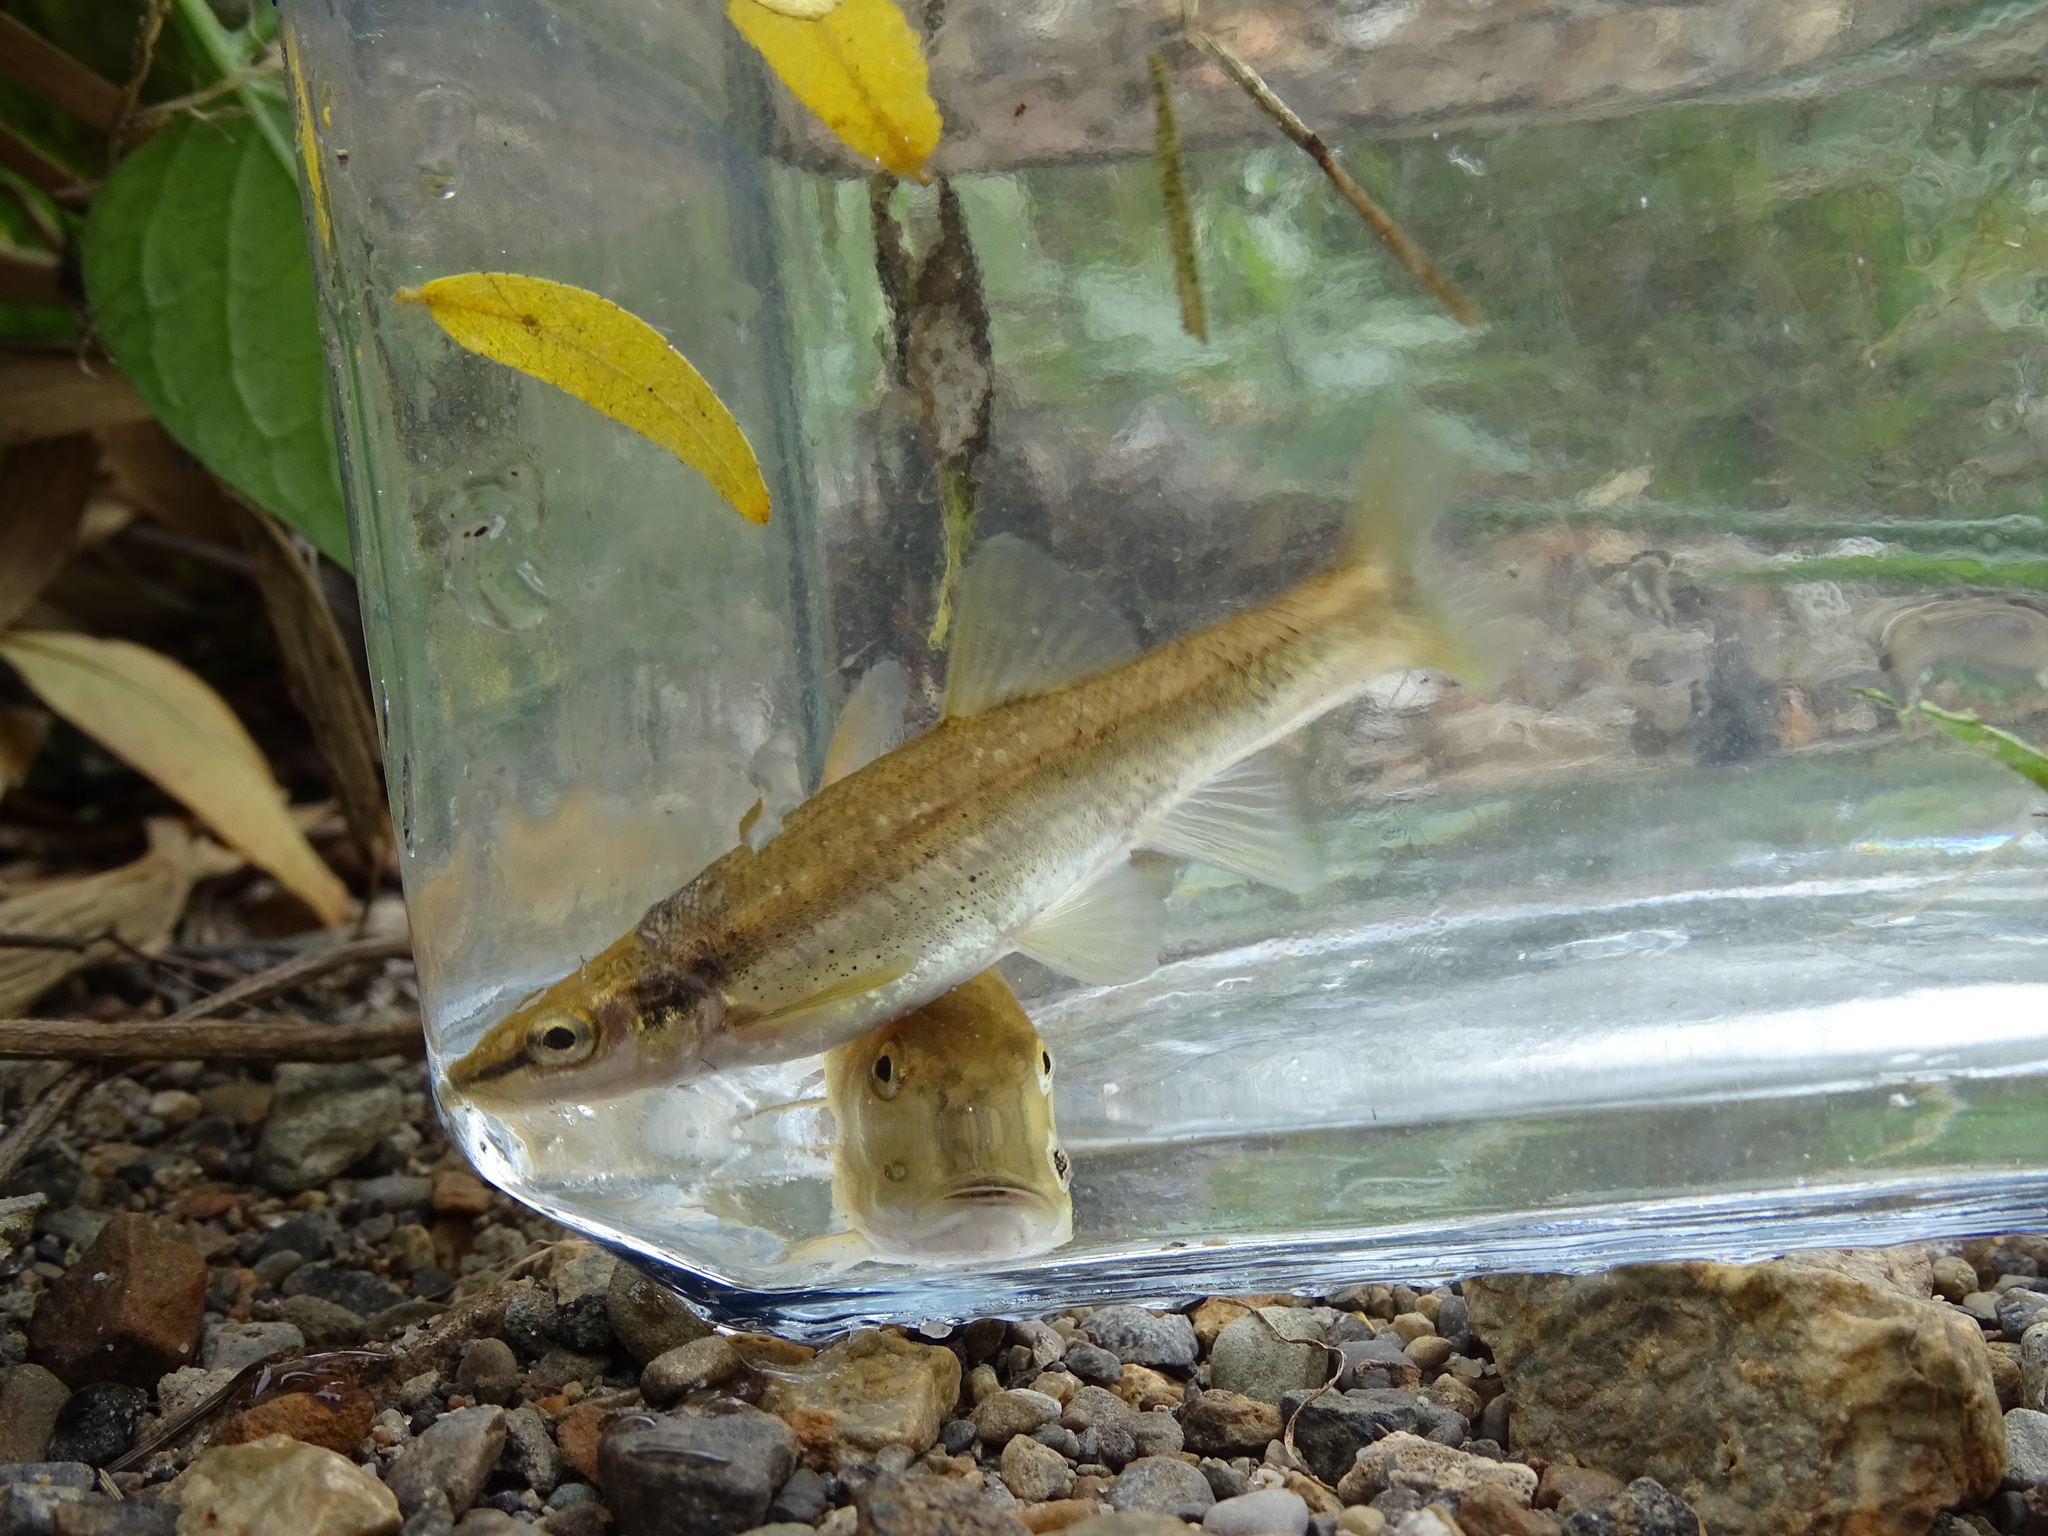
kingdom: Animalia
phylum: Chordata
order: Cypriniformes
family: Cyprinidae
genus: Rhinichthys
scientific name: Rhinichthys obtusus
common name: Western blacknose dace
